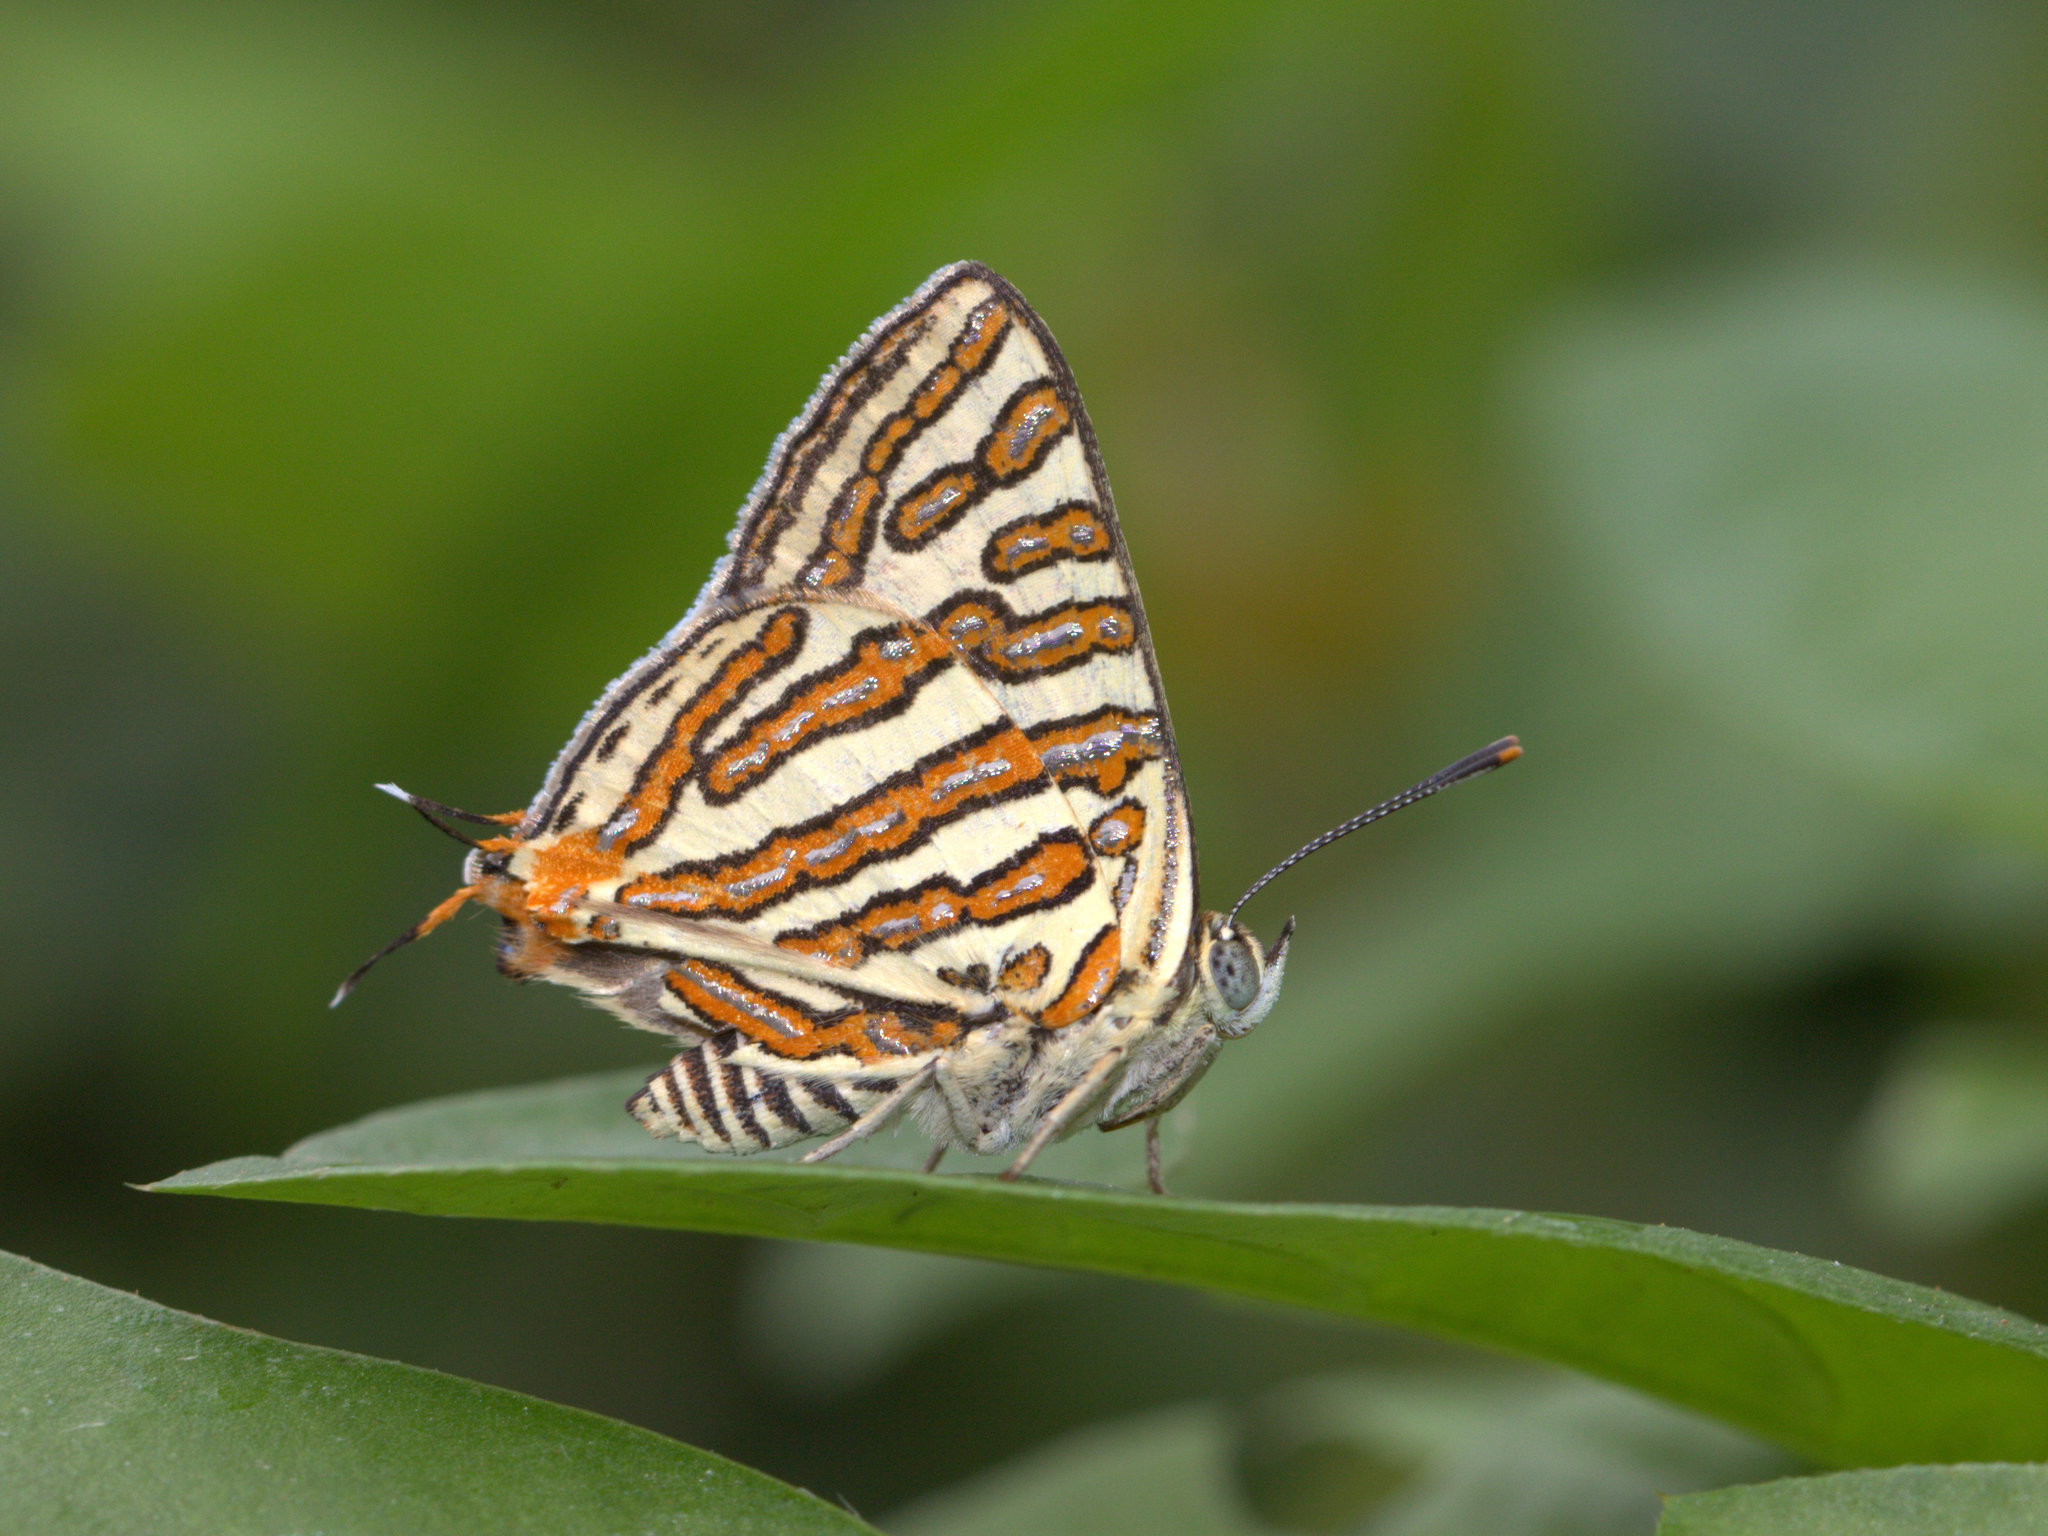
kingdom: Animalia
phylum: Arthropoda
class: Insecta
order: Lepidoptera
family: Lycaenidae
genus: Cigaritis
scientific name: Cigaritis vulcanus
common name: Common silverline
